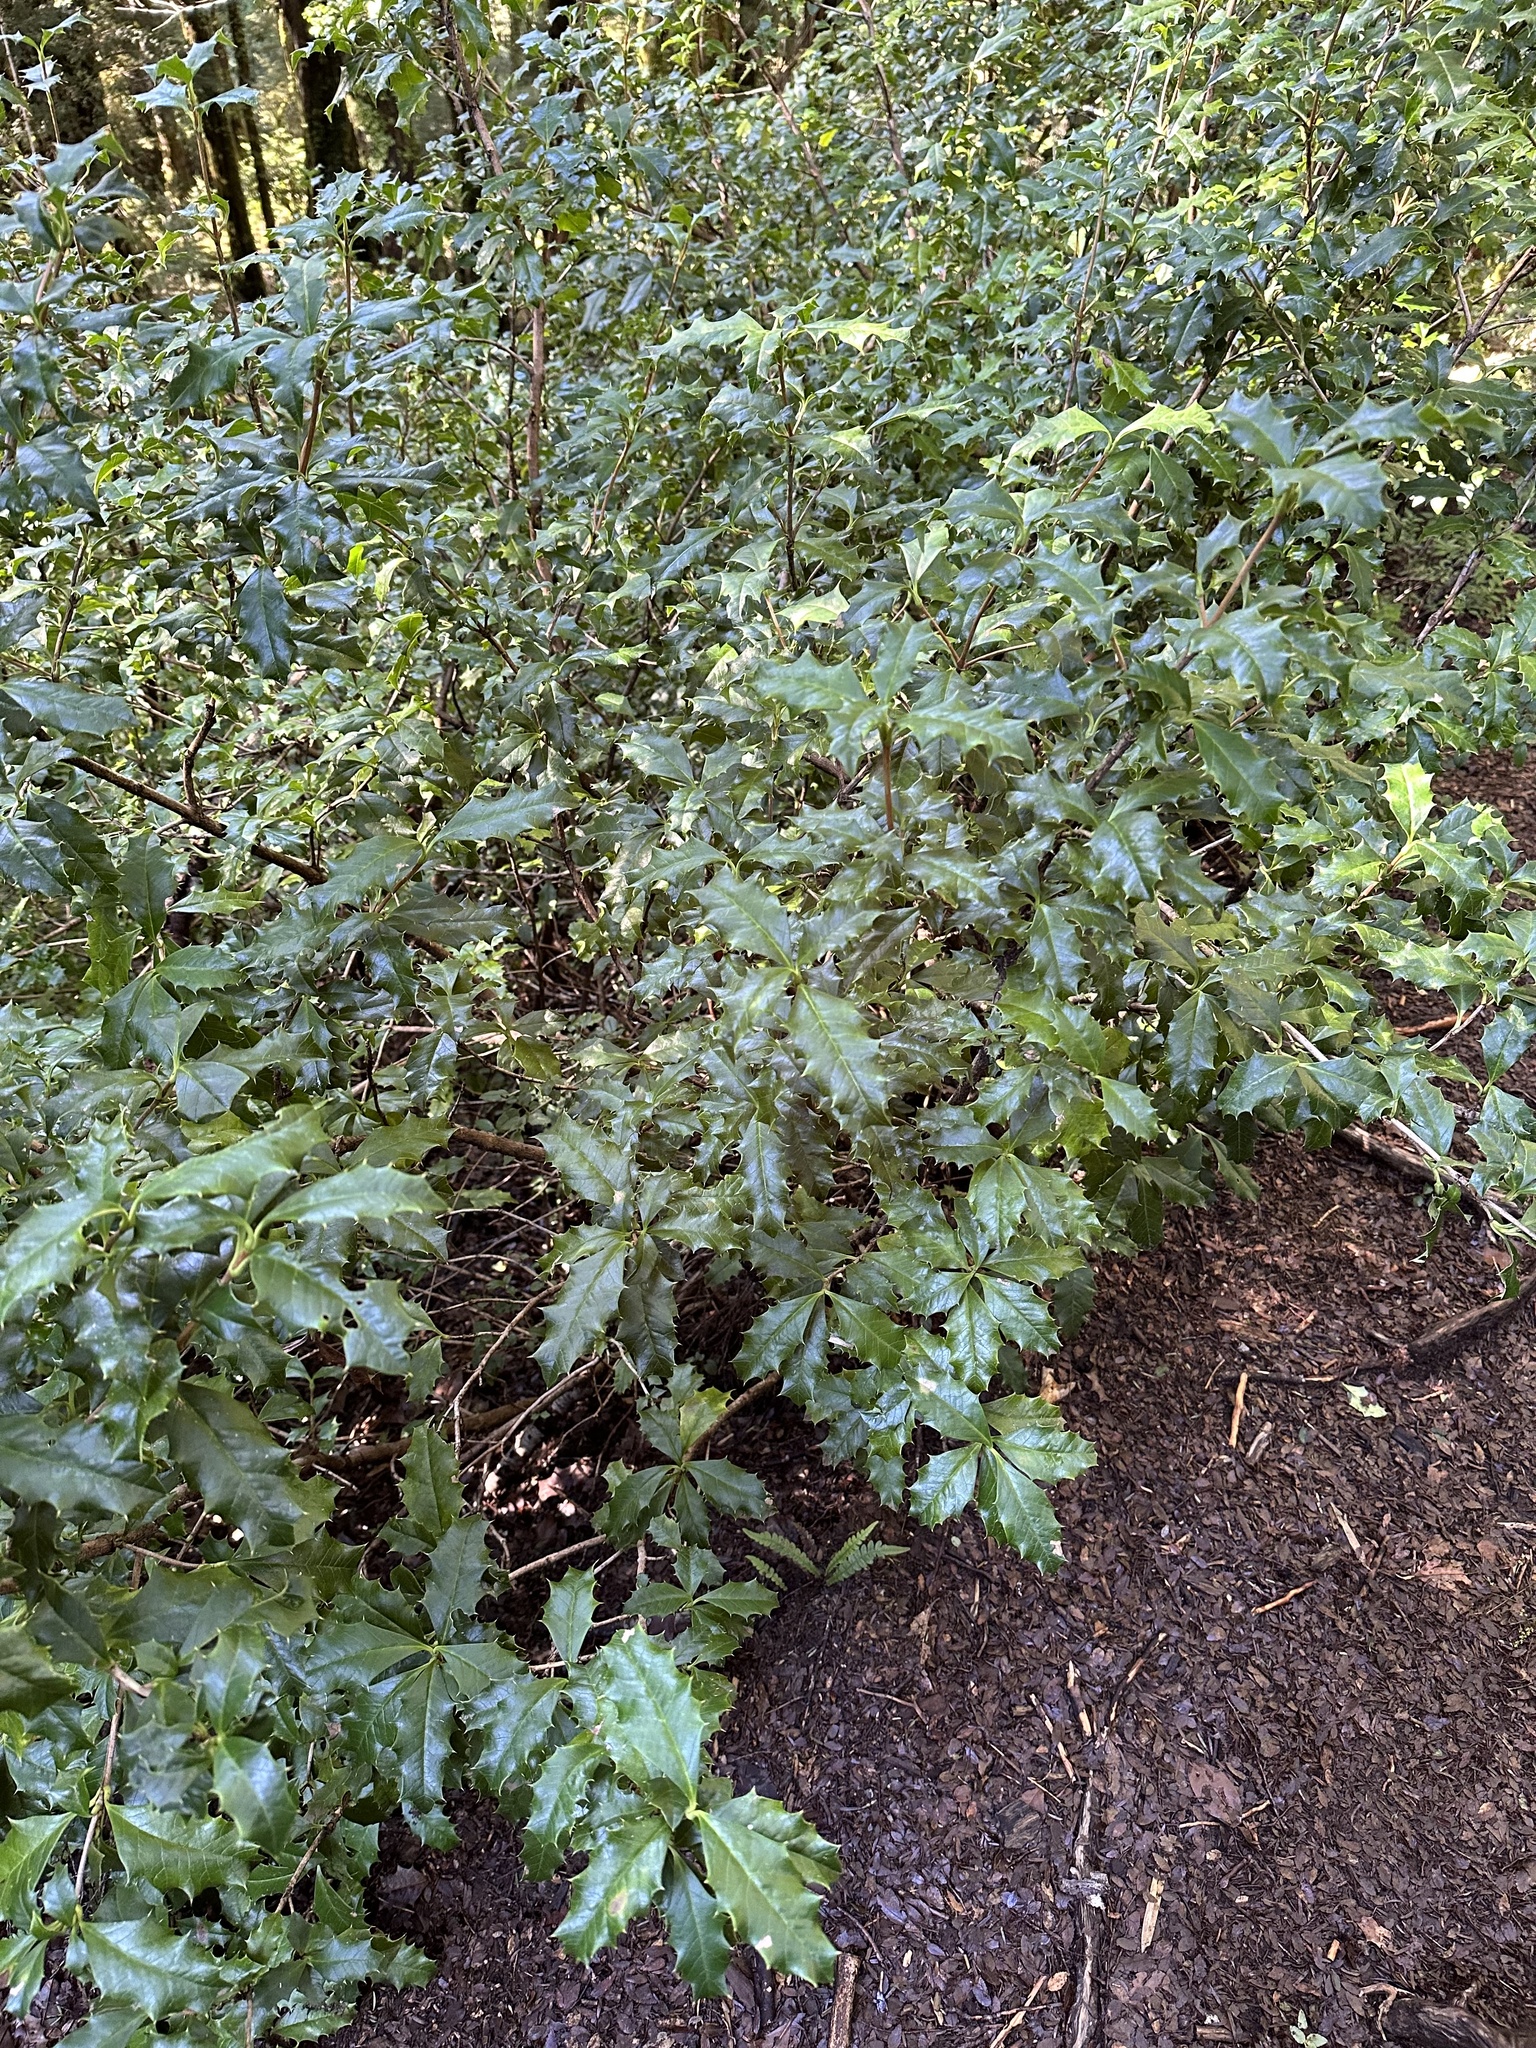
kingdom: Plantae
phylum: Tracheophyta
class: Magnoliopsida
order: Bruniales
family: Columelliaceae
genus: Desfontainia
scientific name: Desfontainia fulgens
